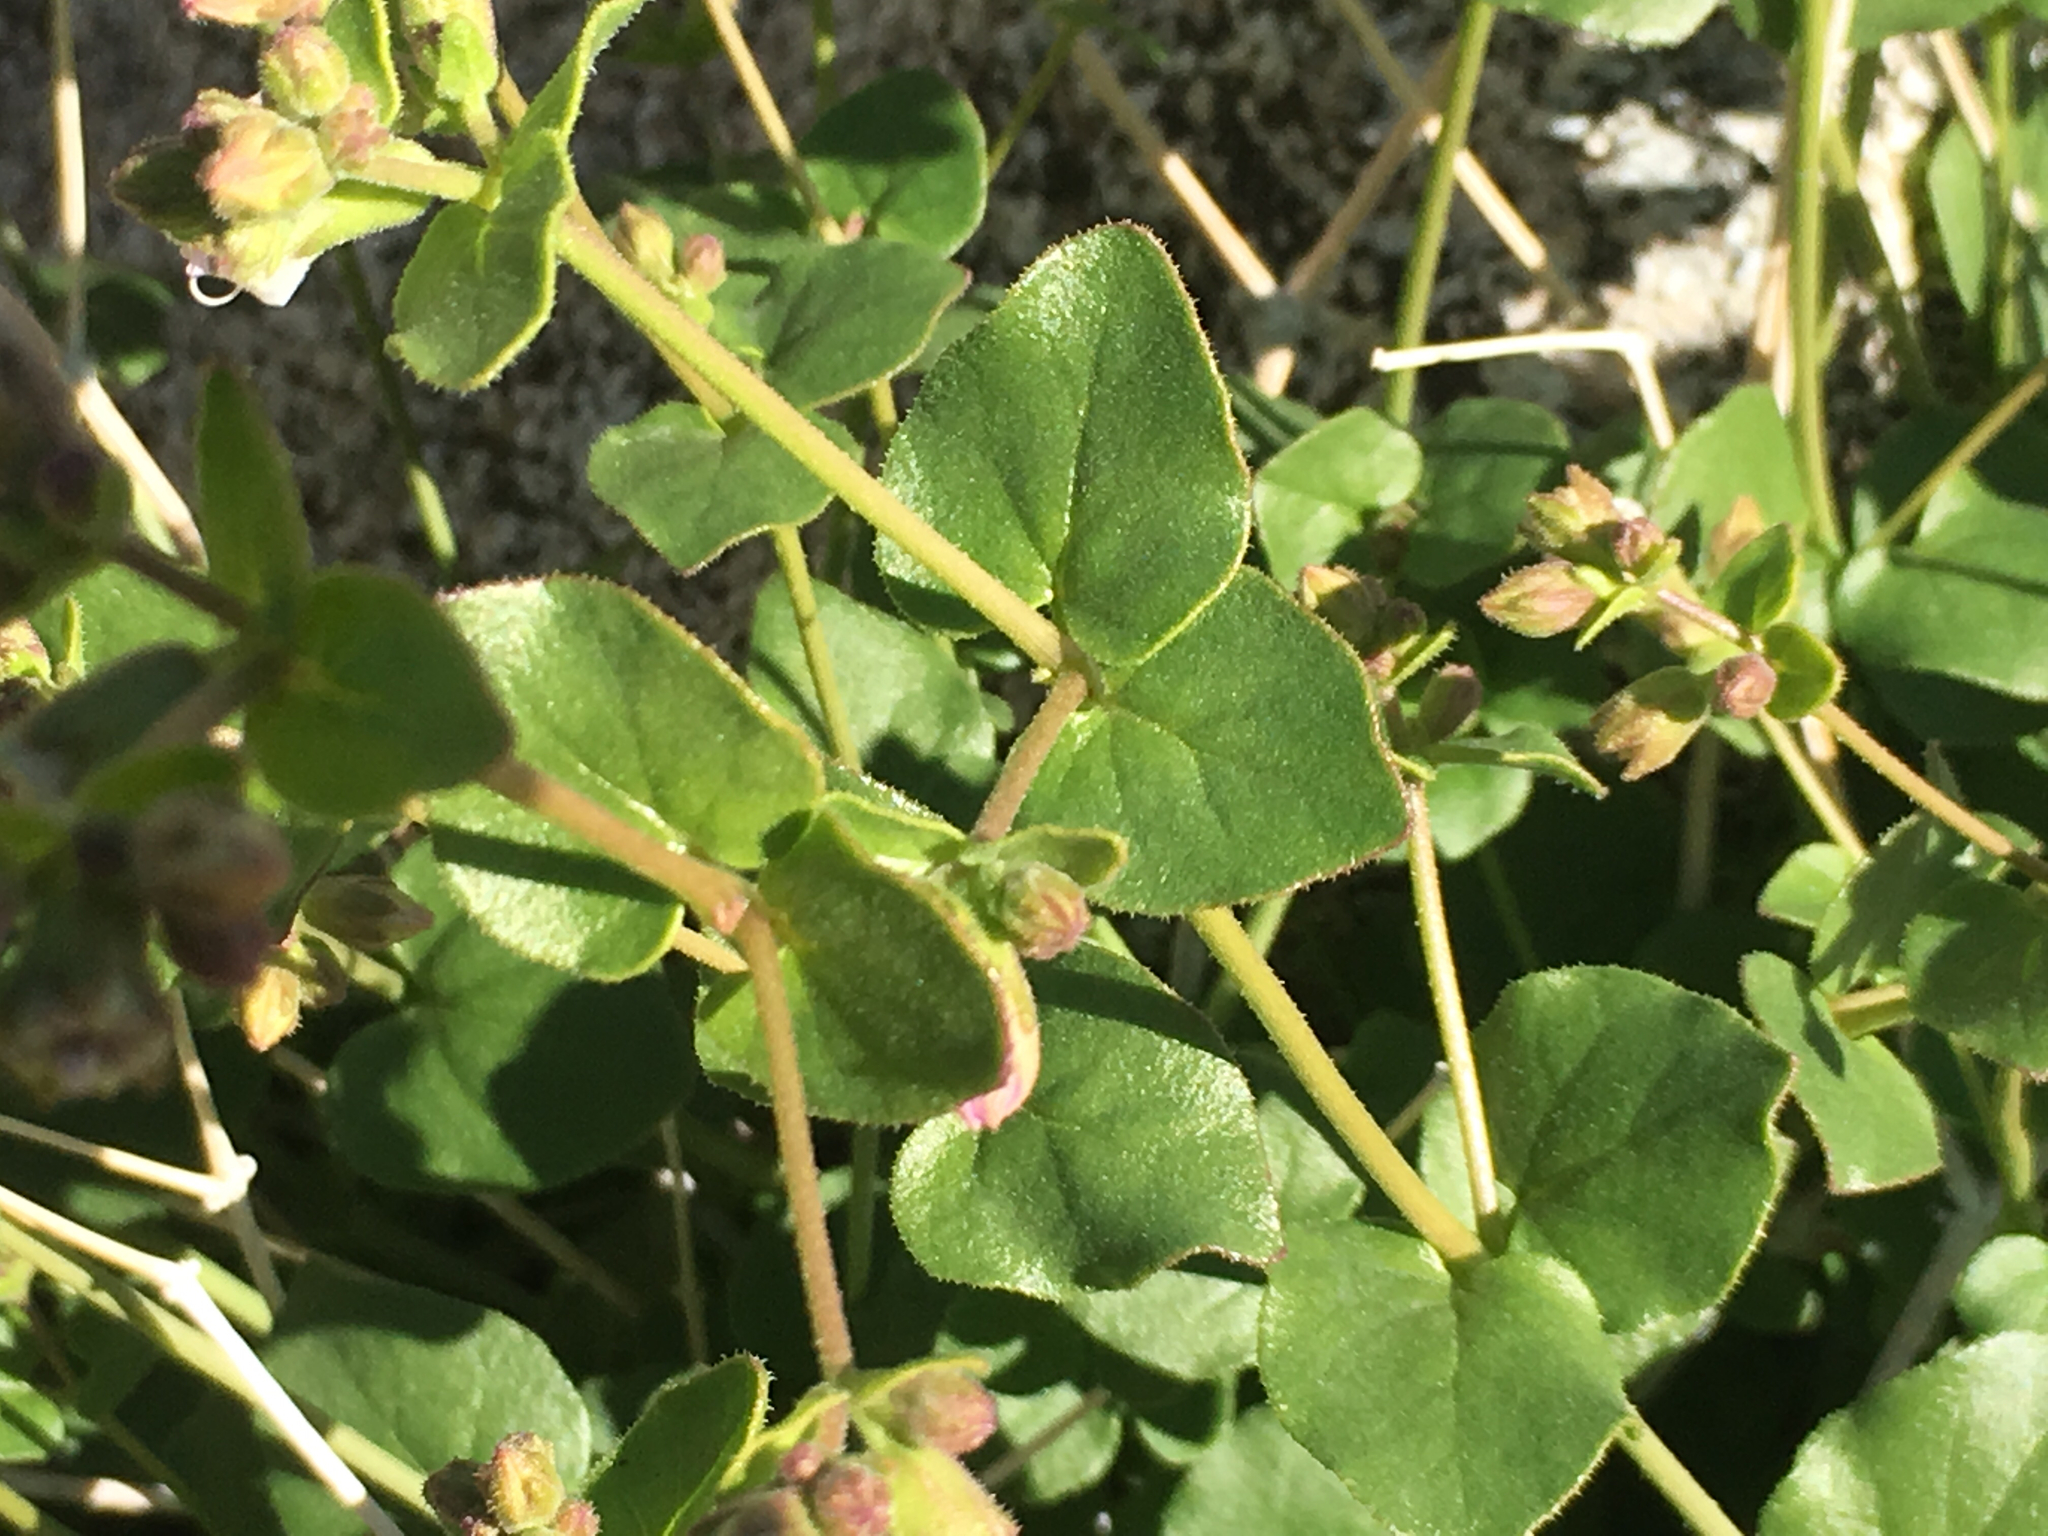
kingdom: Plantae
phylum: Tracheophyta
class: Magnoliopsida
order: Caryophyllales
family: Nyctaginaceae
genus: Mirabilis
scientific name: Mirabilis laevis
